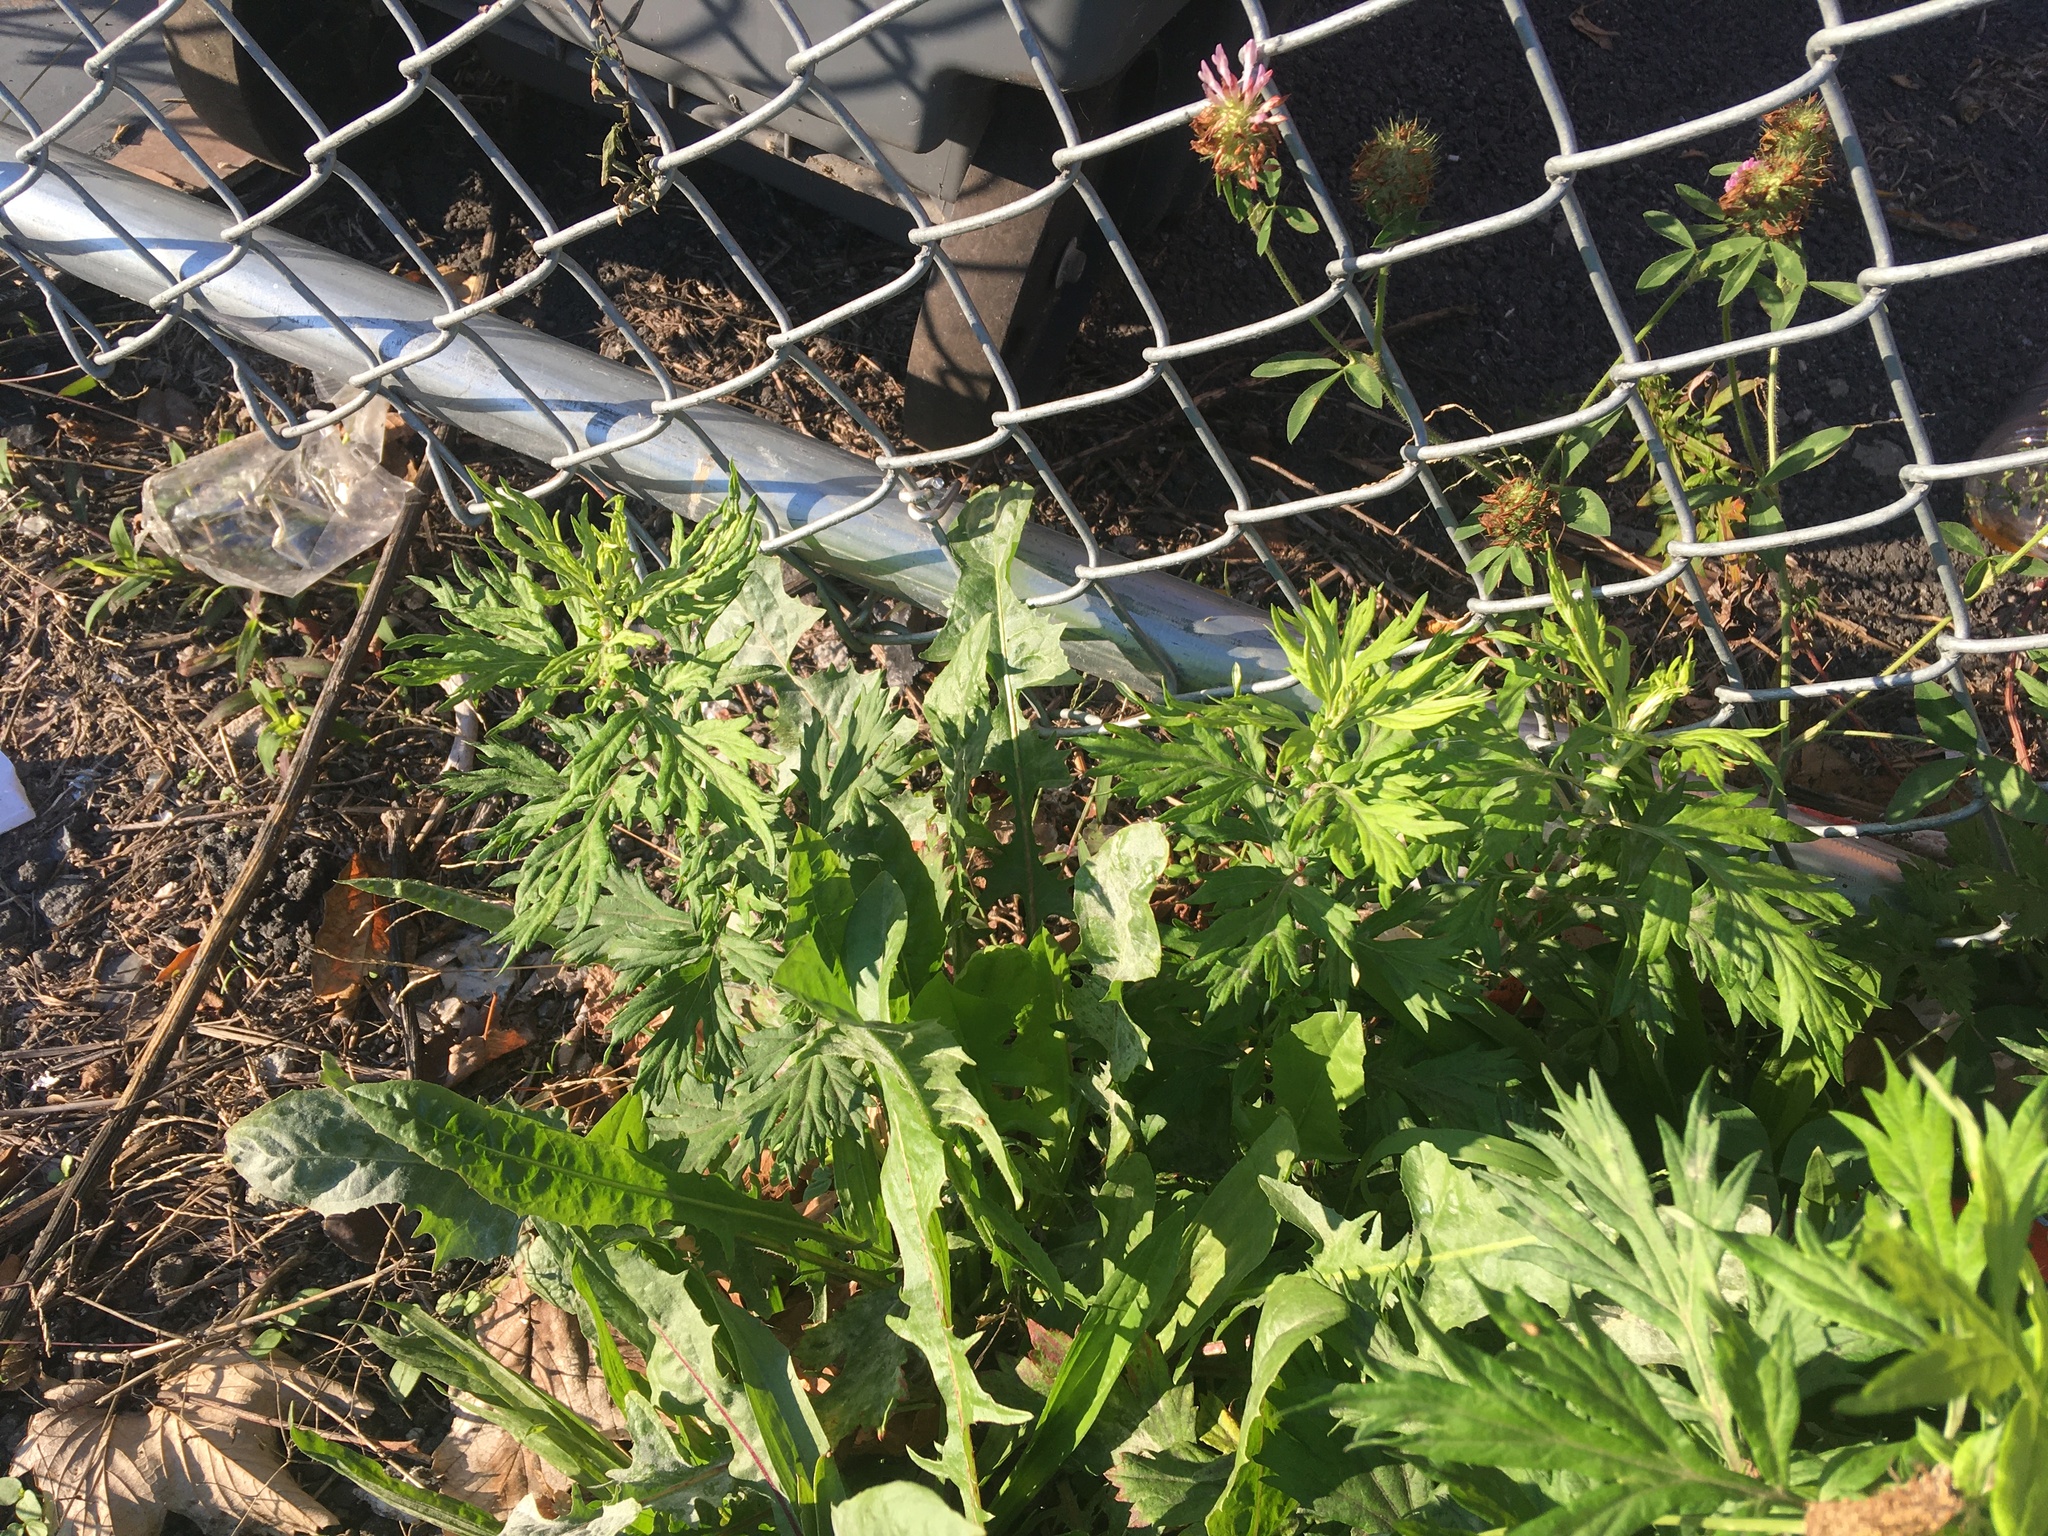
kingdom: Plantae
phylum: Tracheophyta
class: Magnoliopsida
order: Asterales
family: Asteraceae
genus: Artemisia
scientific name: Artemisia vulgaris
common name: Mugwort
